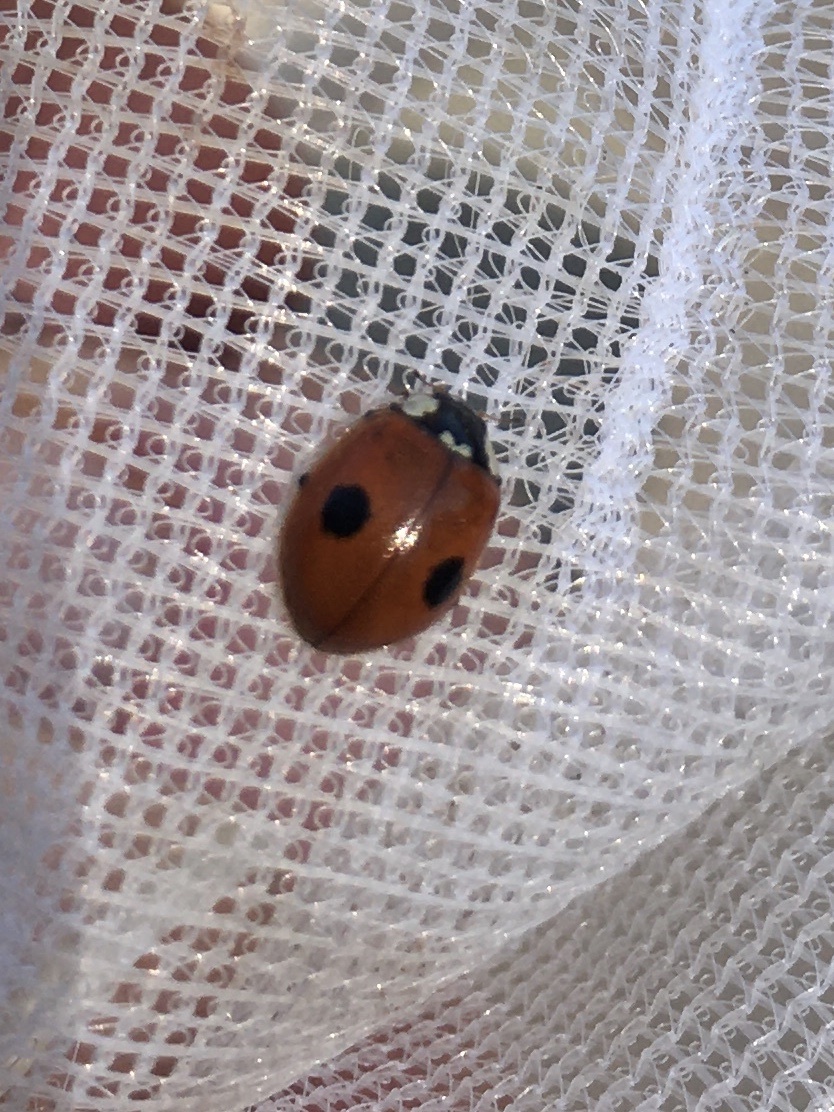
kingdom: Animalia
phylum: Arthropoda
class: Insecta
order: Coleoptera
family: Coccinellidae
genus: Adalia
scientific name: Adalia bipunctata
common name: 2-spot ladybird
